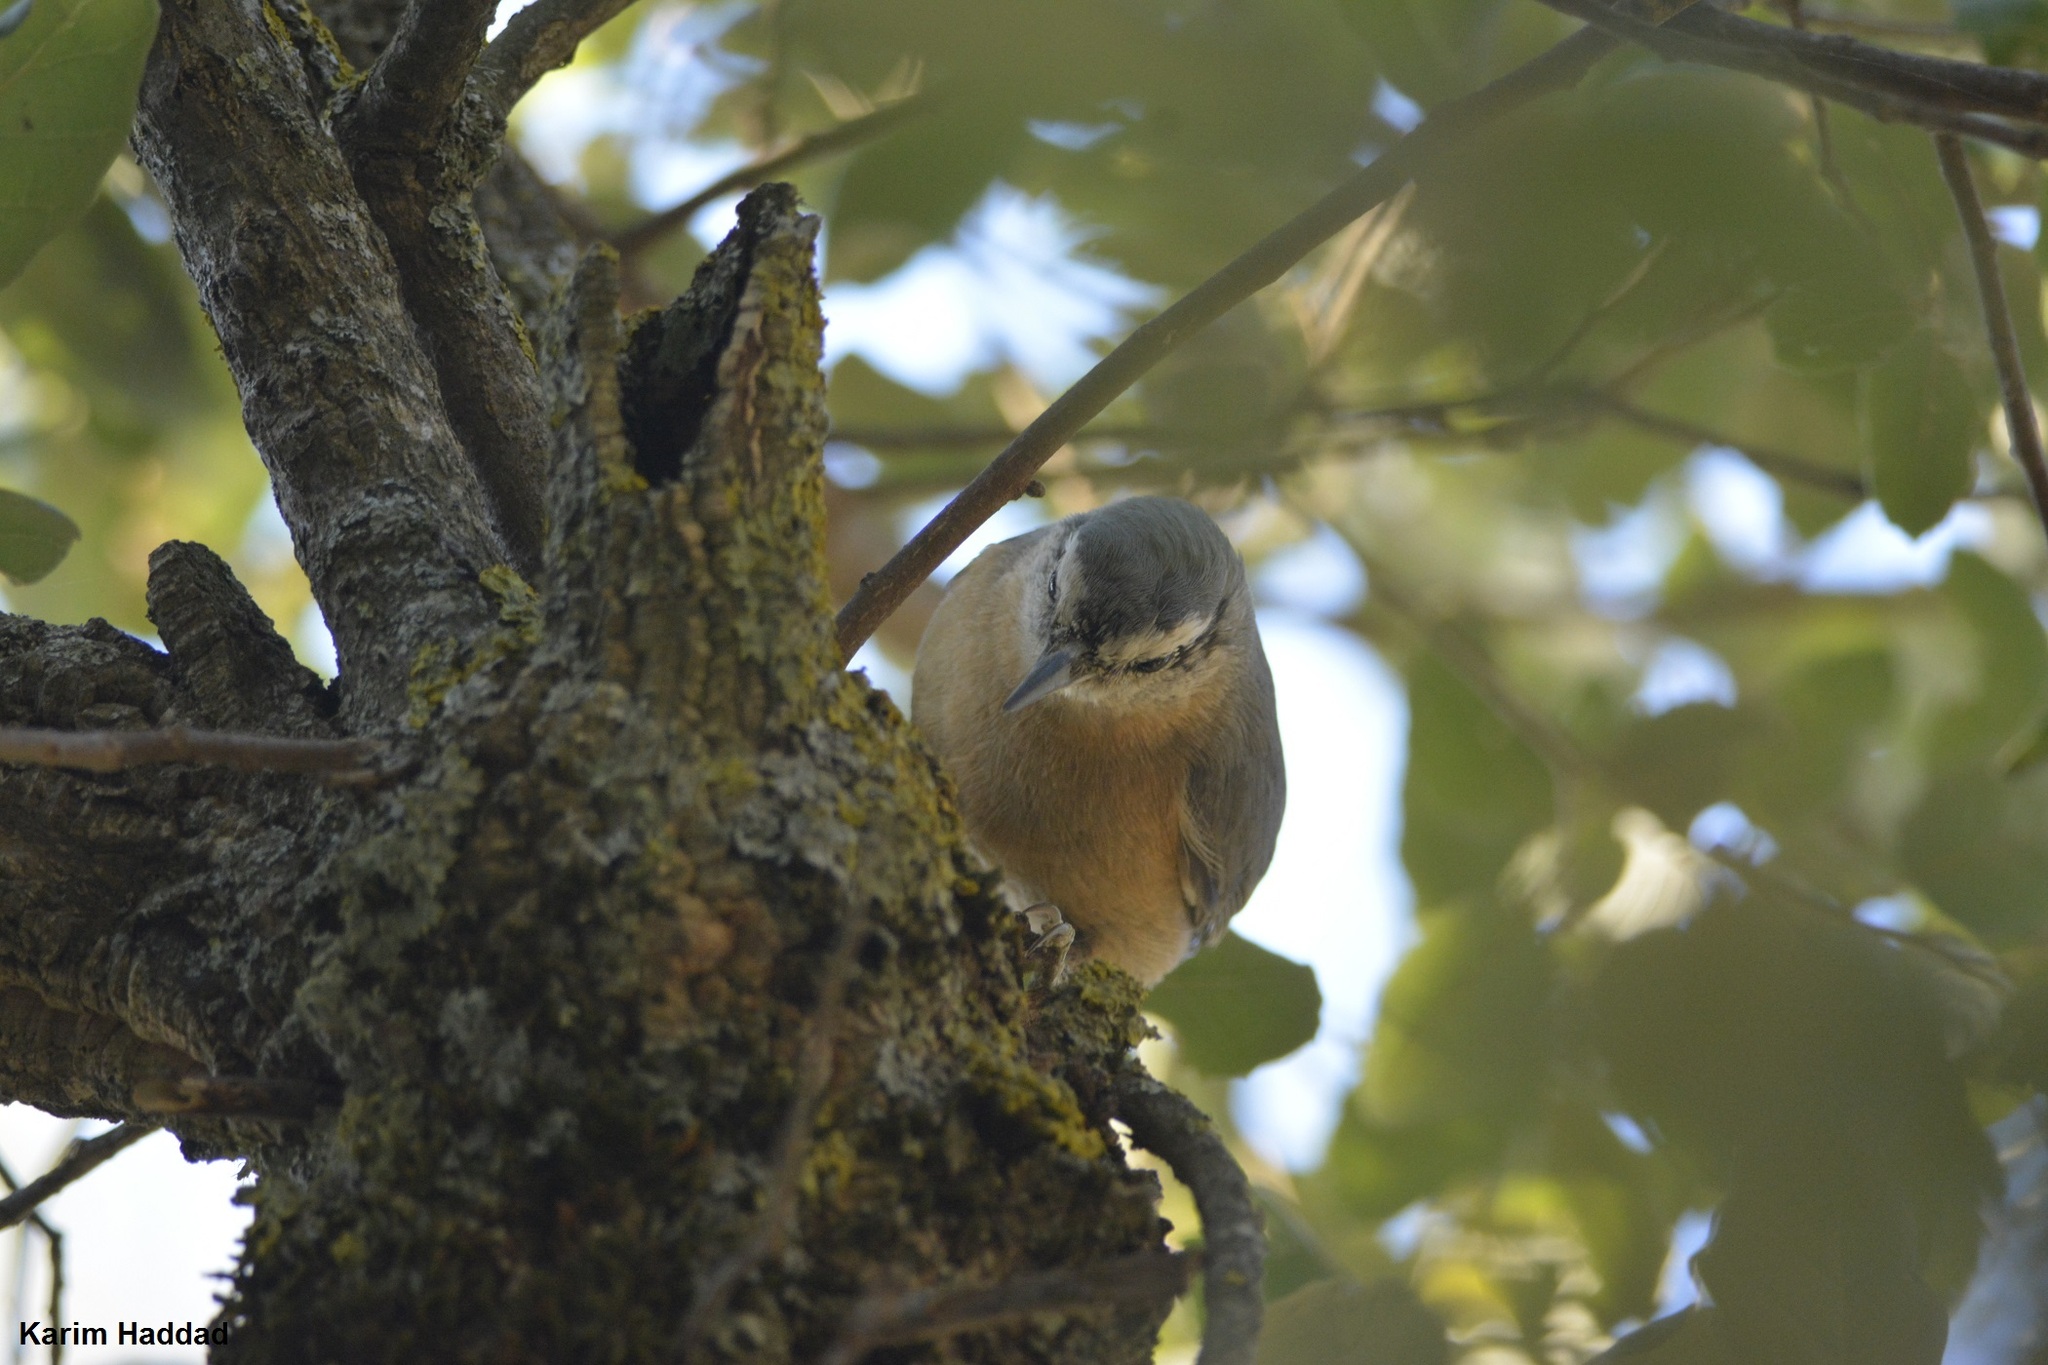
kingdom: Animalia
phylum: Chordata
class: Aves
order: Passeriformes
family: Sittidae
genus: Sitta
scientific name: Sitta ledanti
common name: Algerian nuthatch
